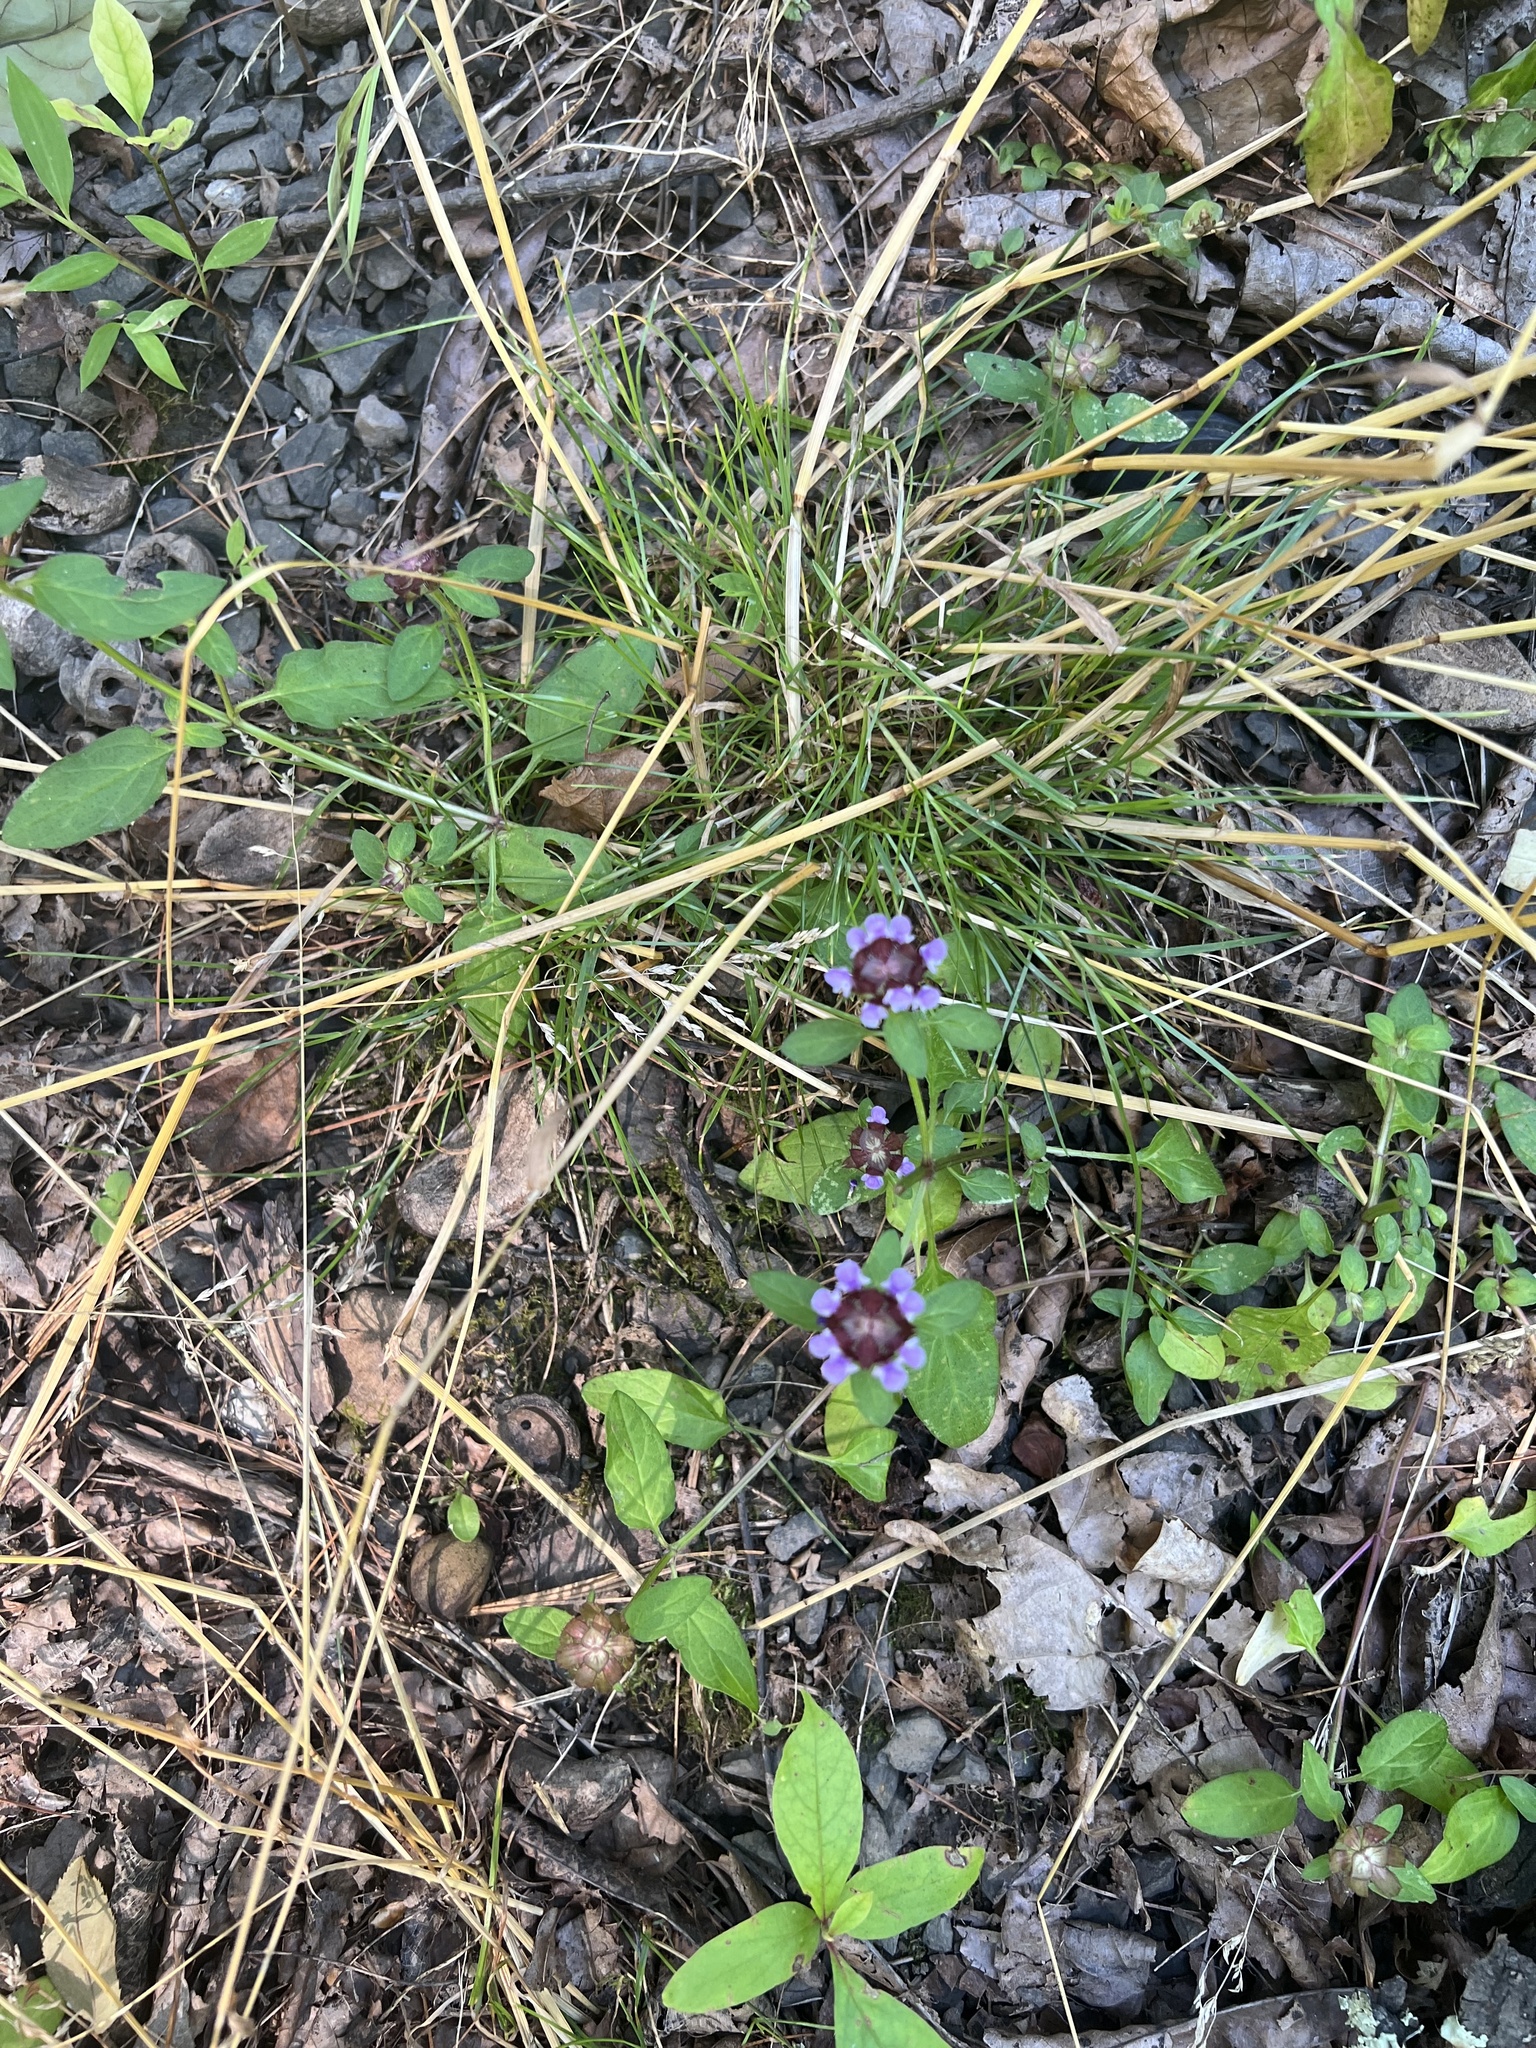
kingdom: Plantae
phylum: Tracheophyta
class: Magnoliopsida
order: Lamiales
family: Lamiaceae
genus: Prunella
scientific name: Prunella vulgaris
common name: Heal-all
